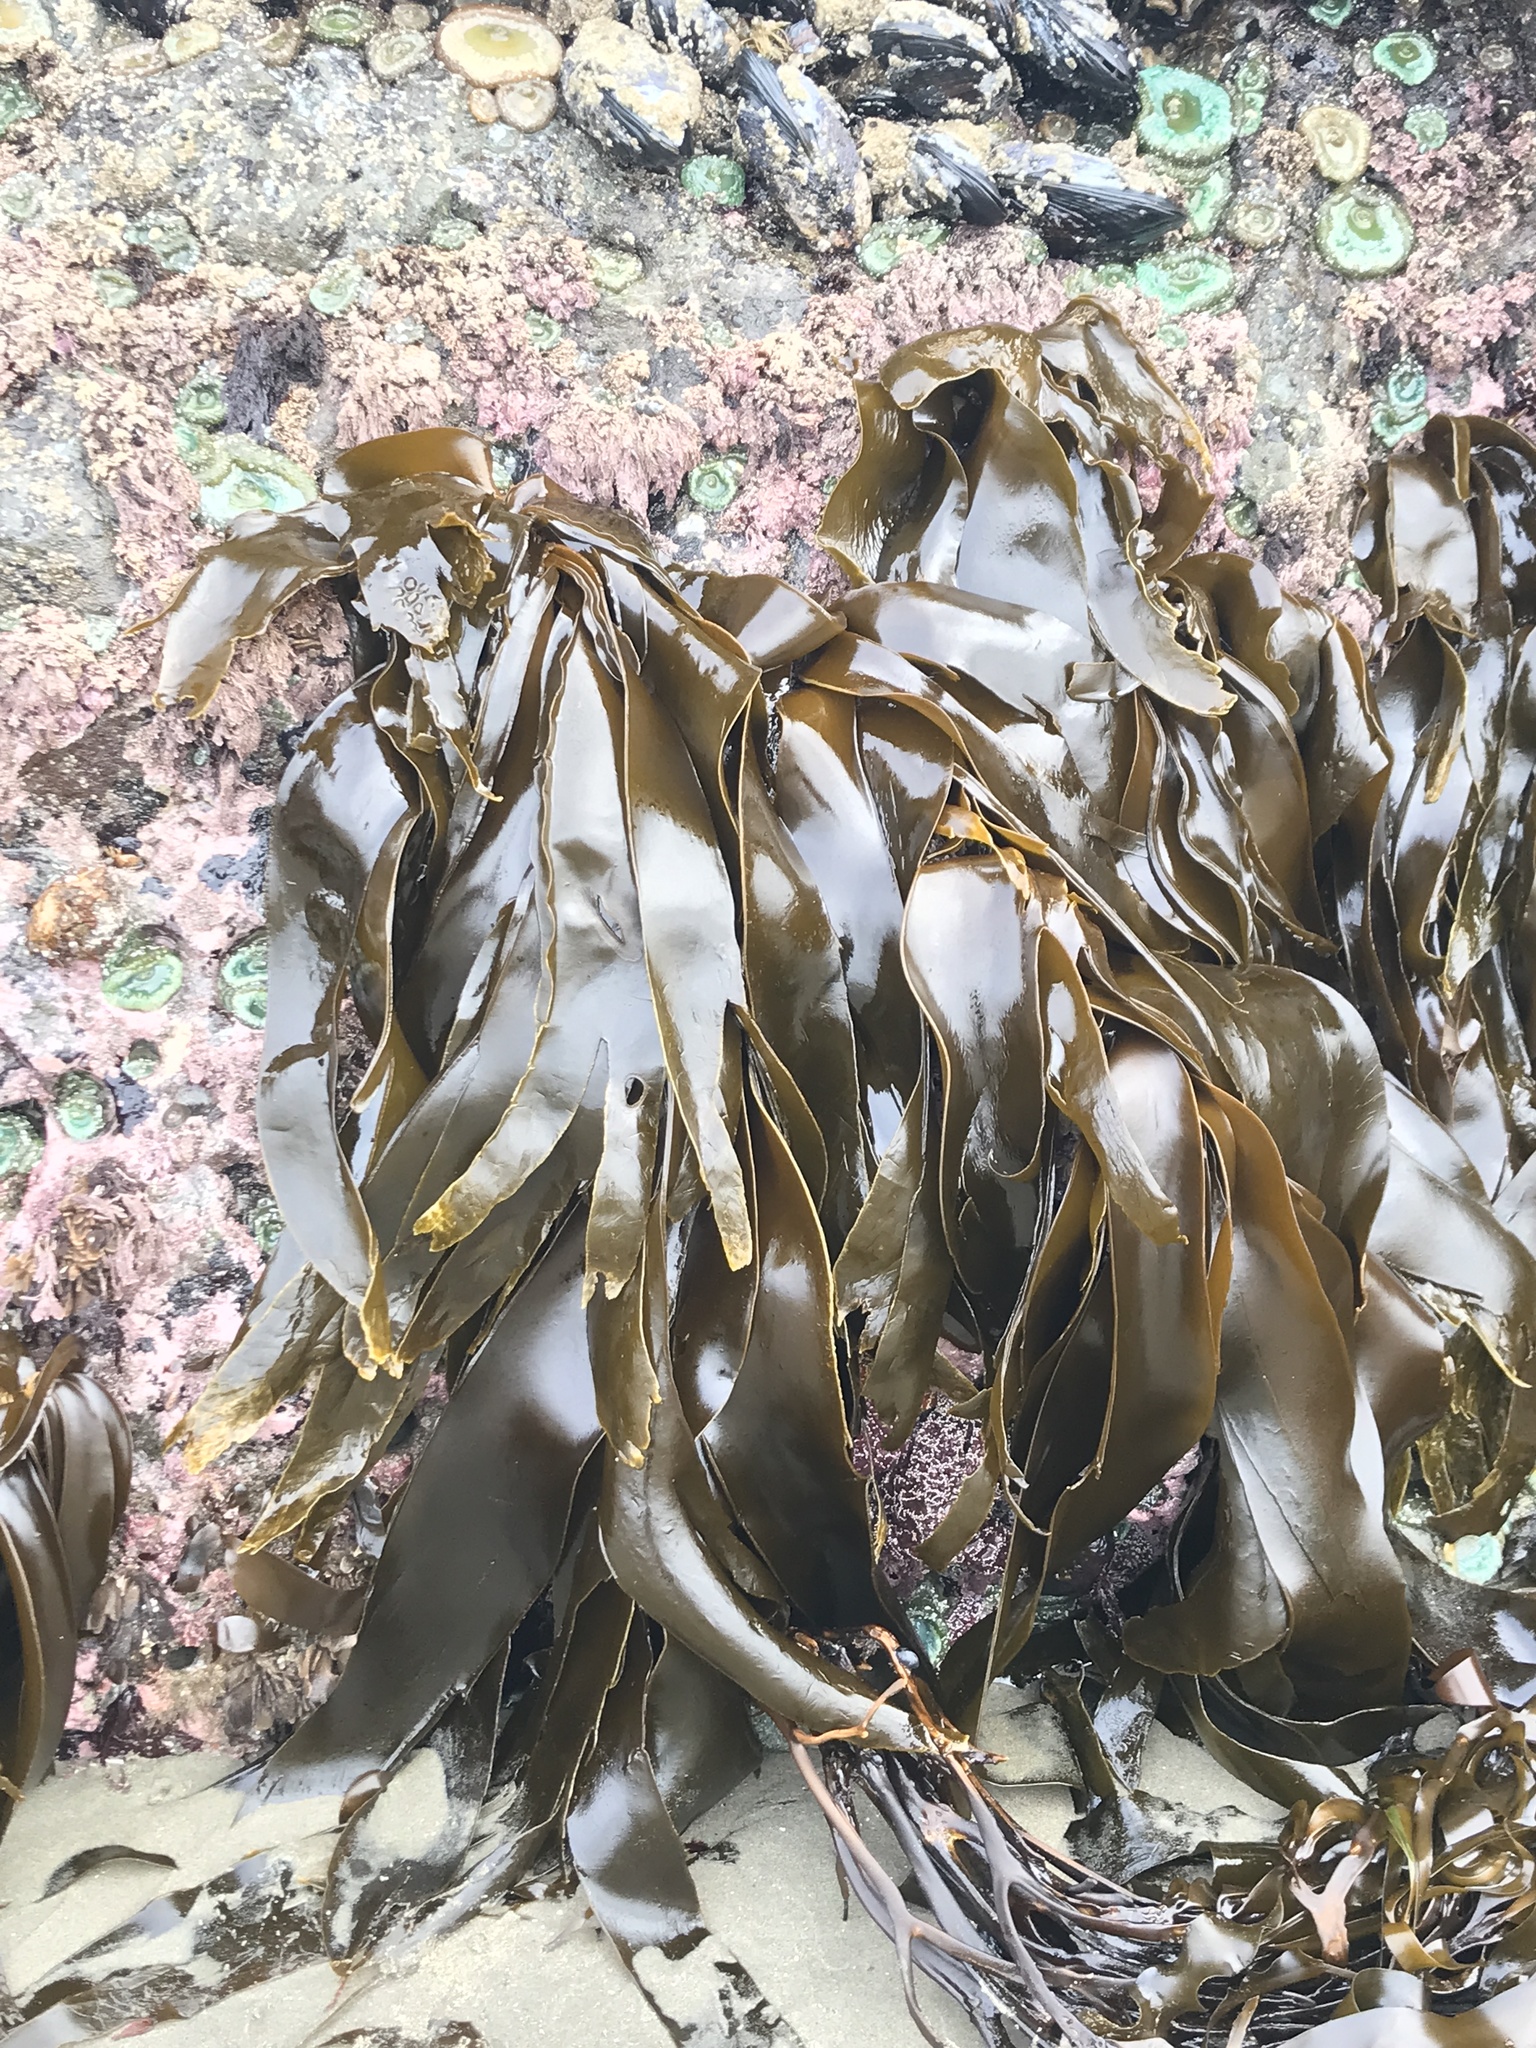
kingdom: Chromista
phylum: Ochrophyta
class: Phaeophyceae
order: Laminariales
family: Laminariaceae
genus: Hedophyllum
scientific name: Hedophyllum sessile
